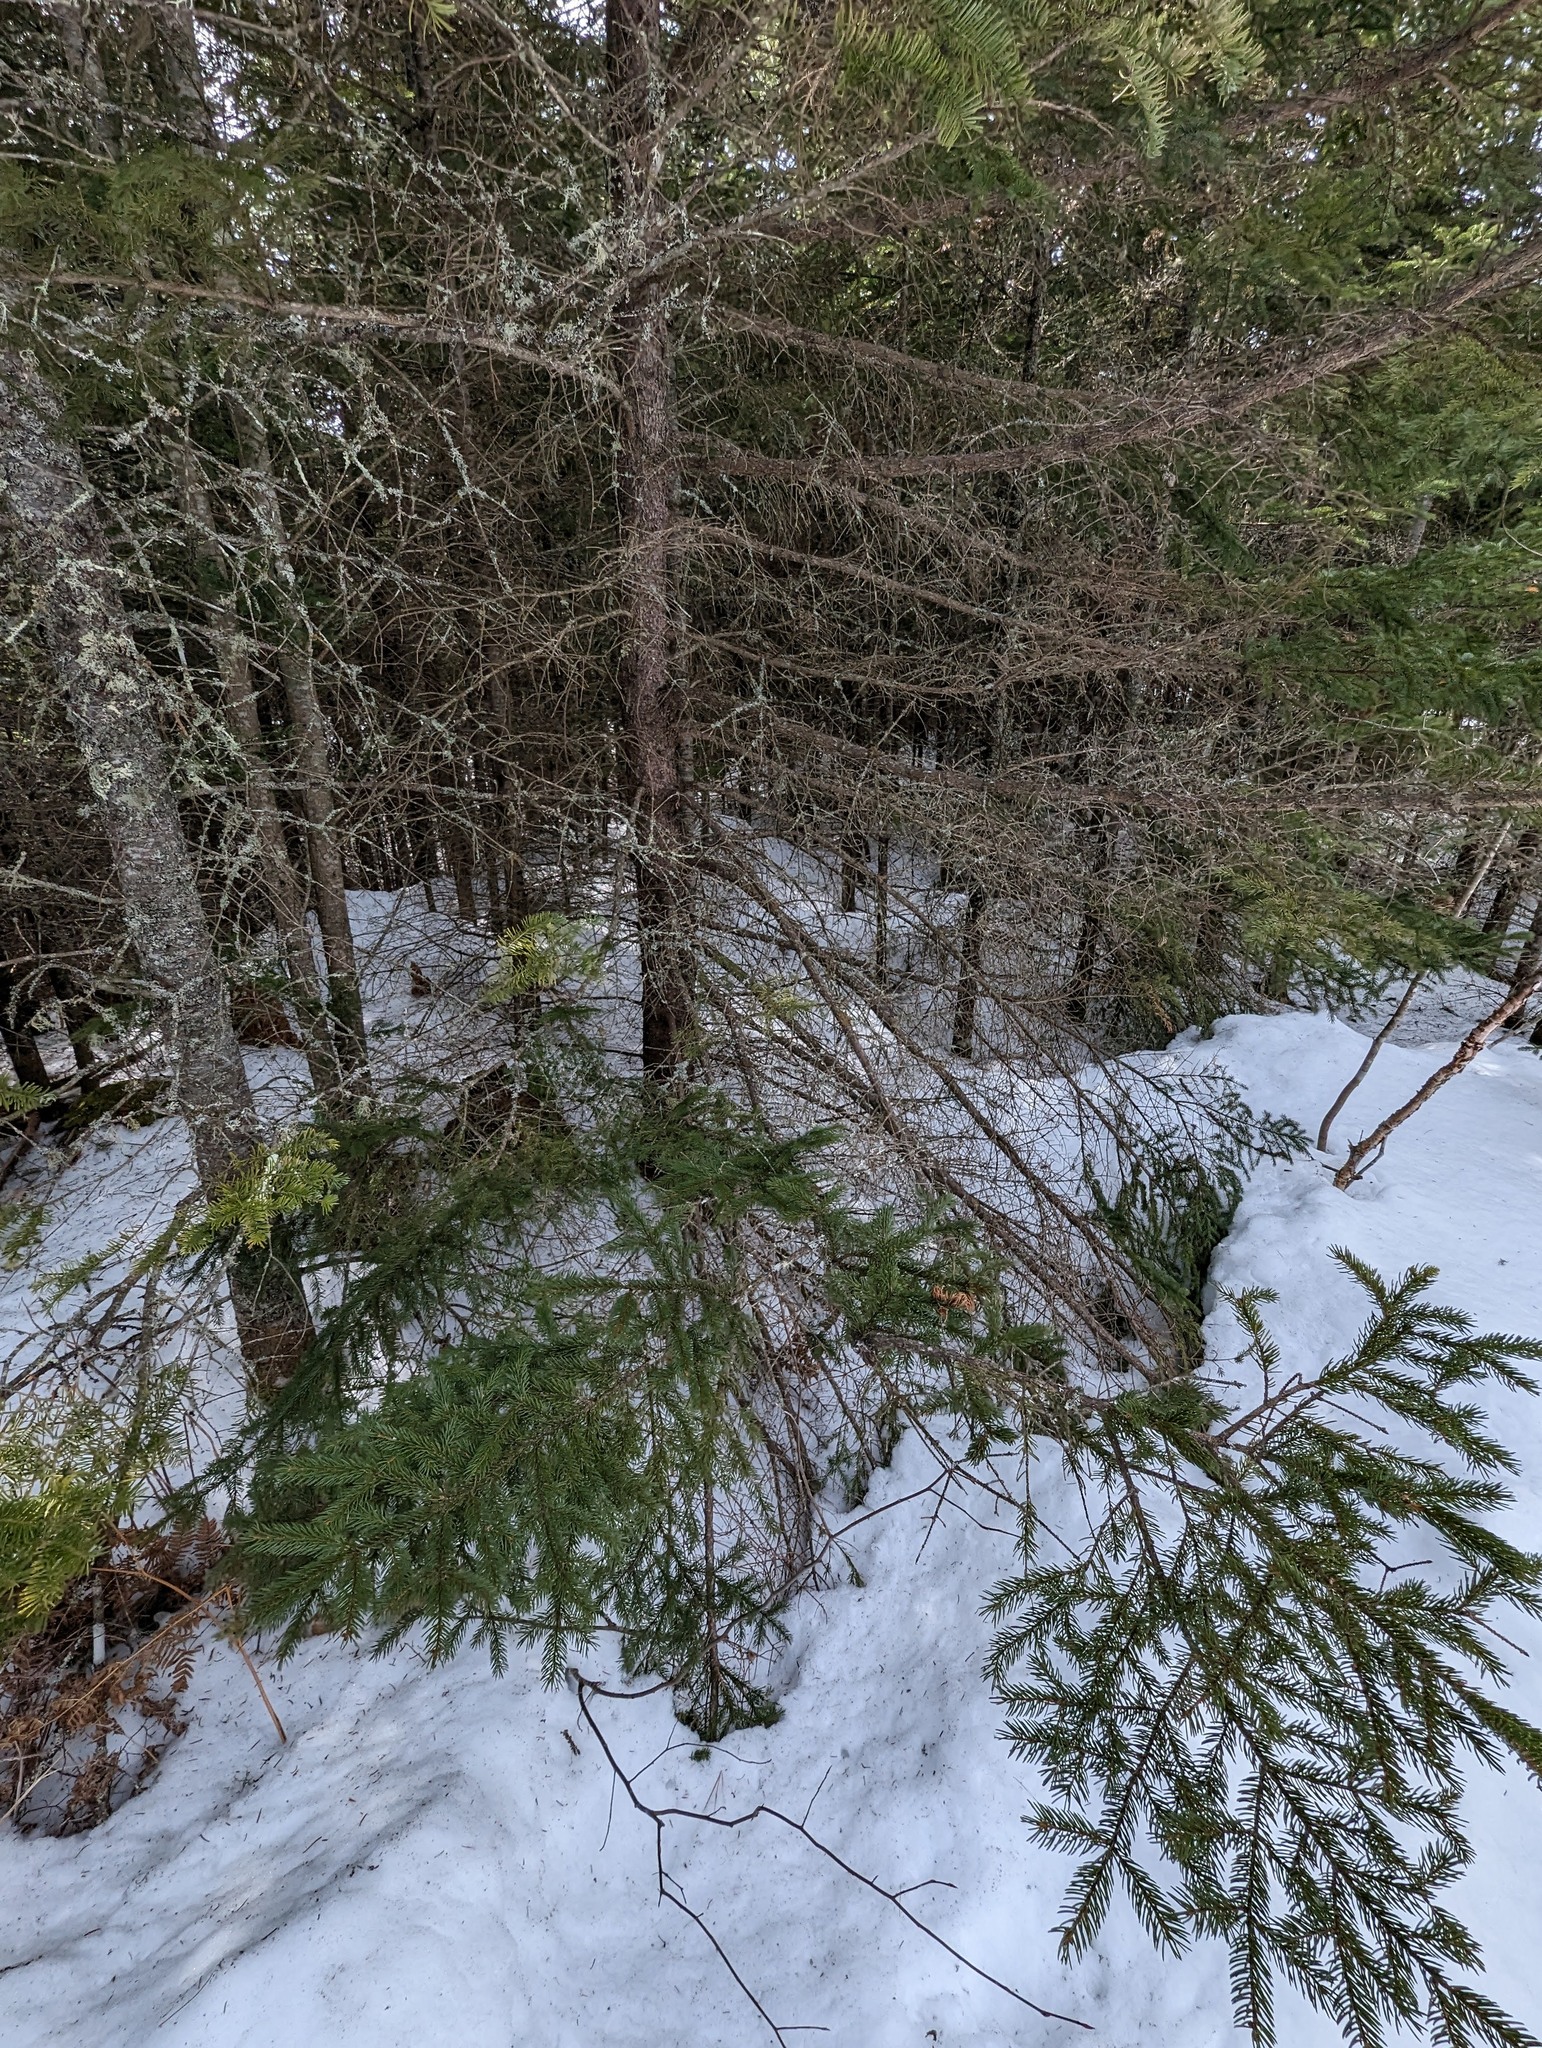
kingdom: Plantae
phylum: Tracheophyta
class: Pinopsida
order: Pinales
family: Pinaceae
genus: Picea
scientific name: Picea rubens
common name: Red spruce
